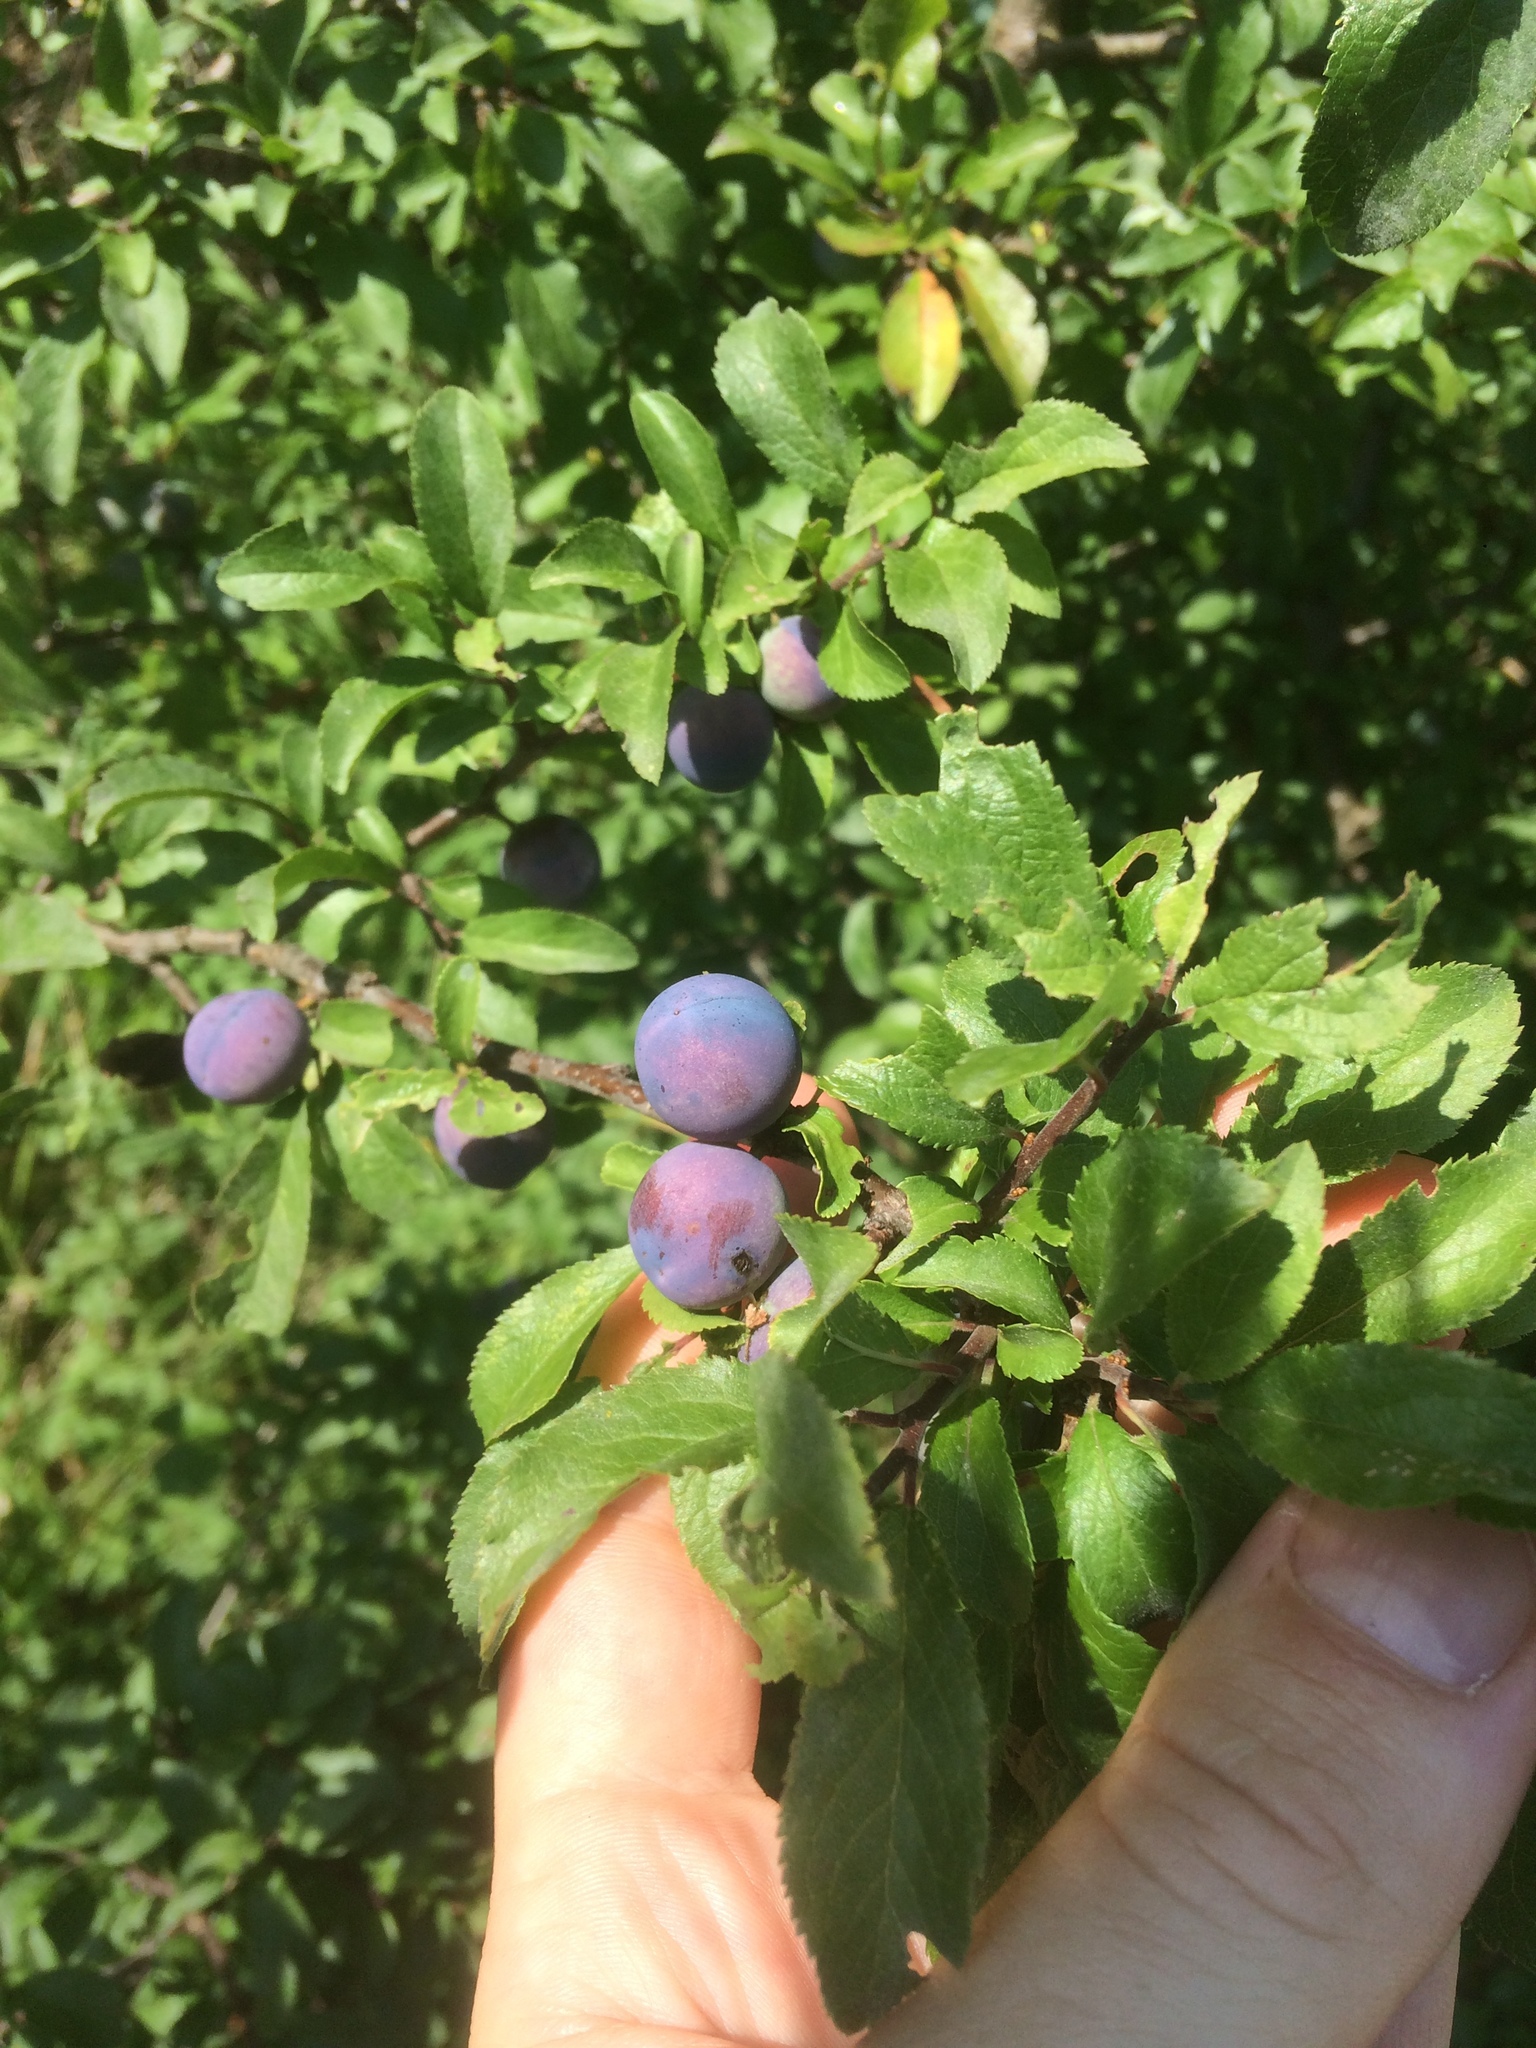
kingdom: Plantae
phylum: Tracheophyta
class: Magnoliopsida
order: Rosales
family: Rosaceae
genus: Prunus
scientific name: Prunus spinosa
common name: Blackthorn
